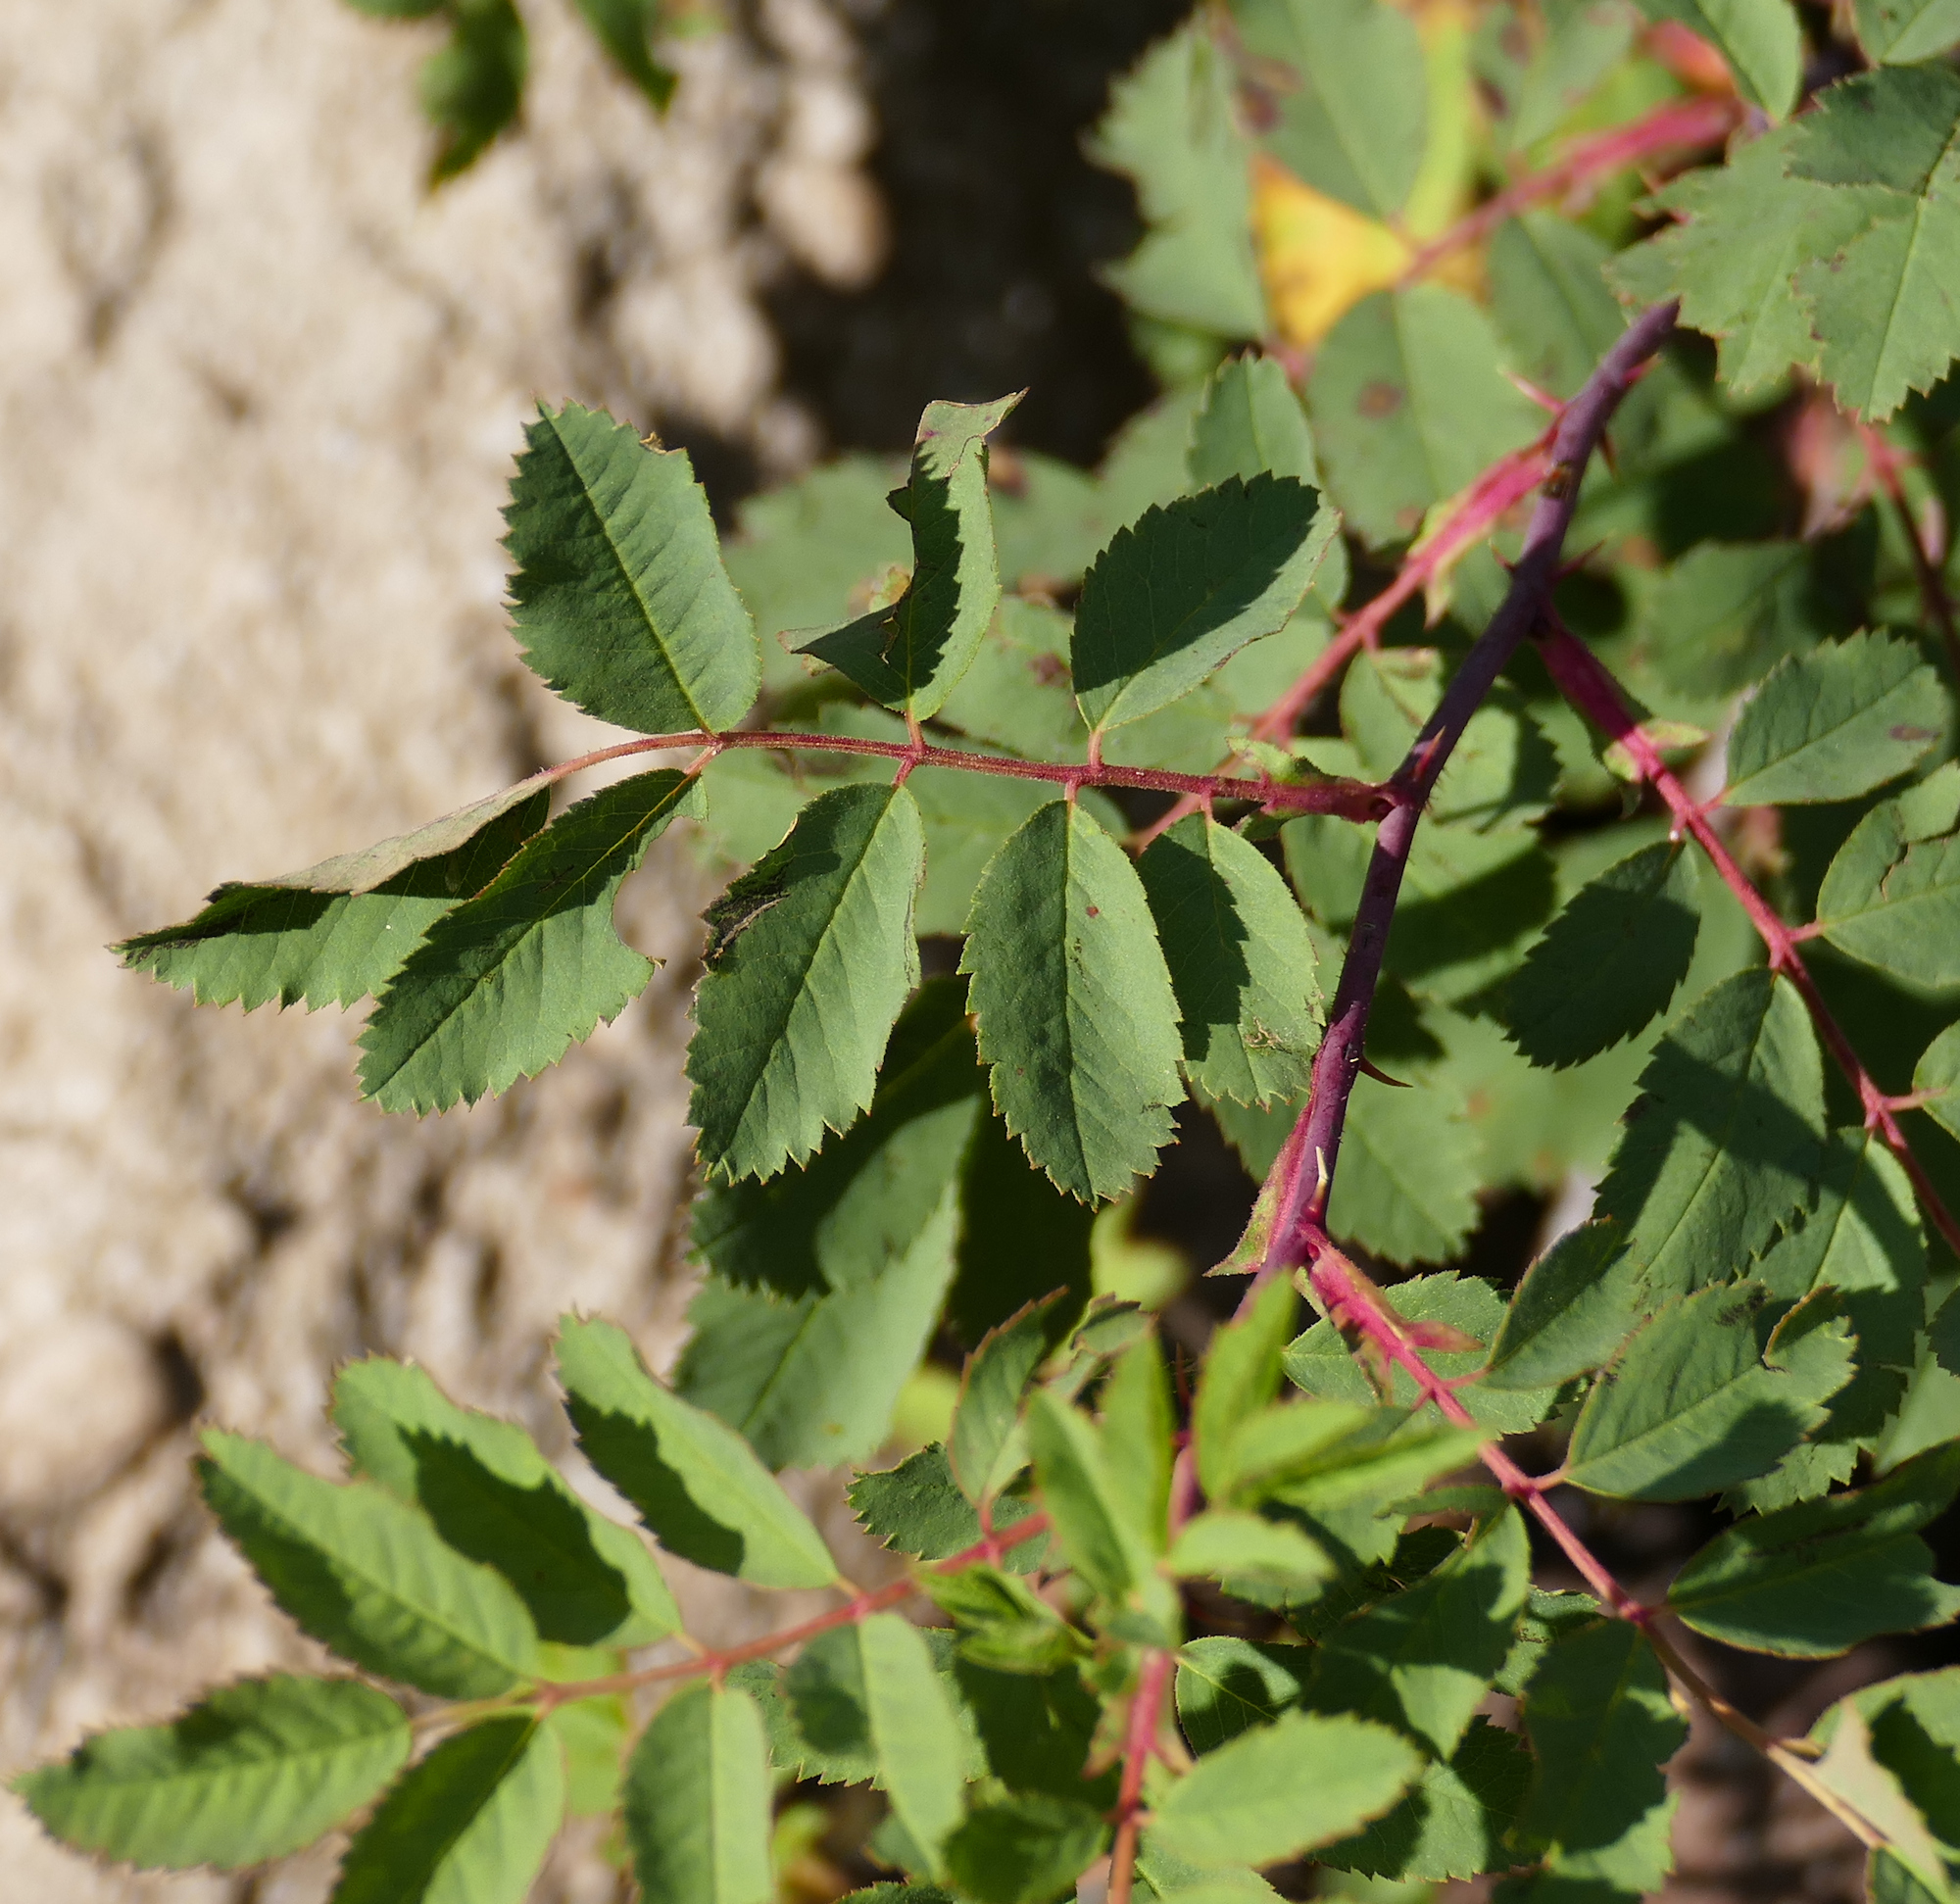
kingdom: Plantae
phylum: Tracheophyta
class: Magnoliopsida
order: Rosales
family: Rosaceae
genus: Rosa
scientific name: Rosa woodsii
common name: Woods's rose
